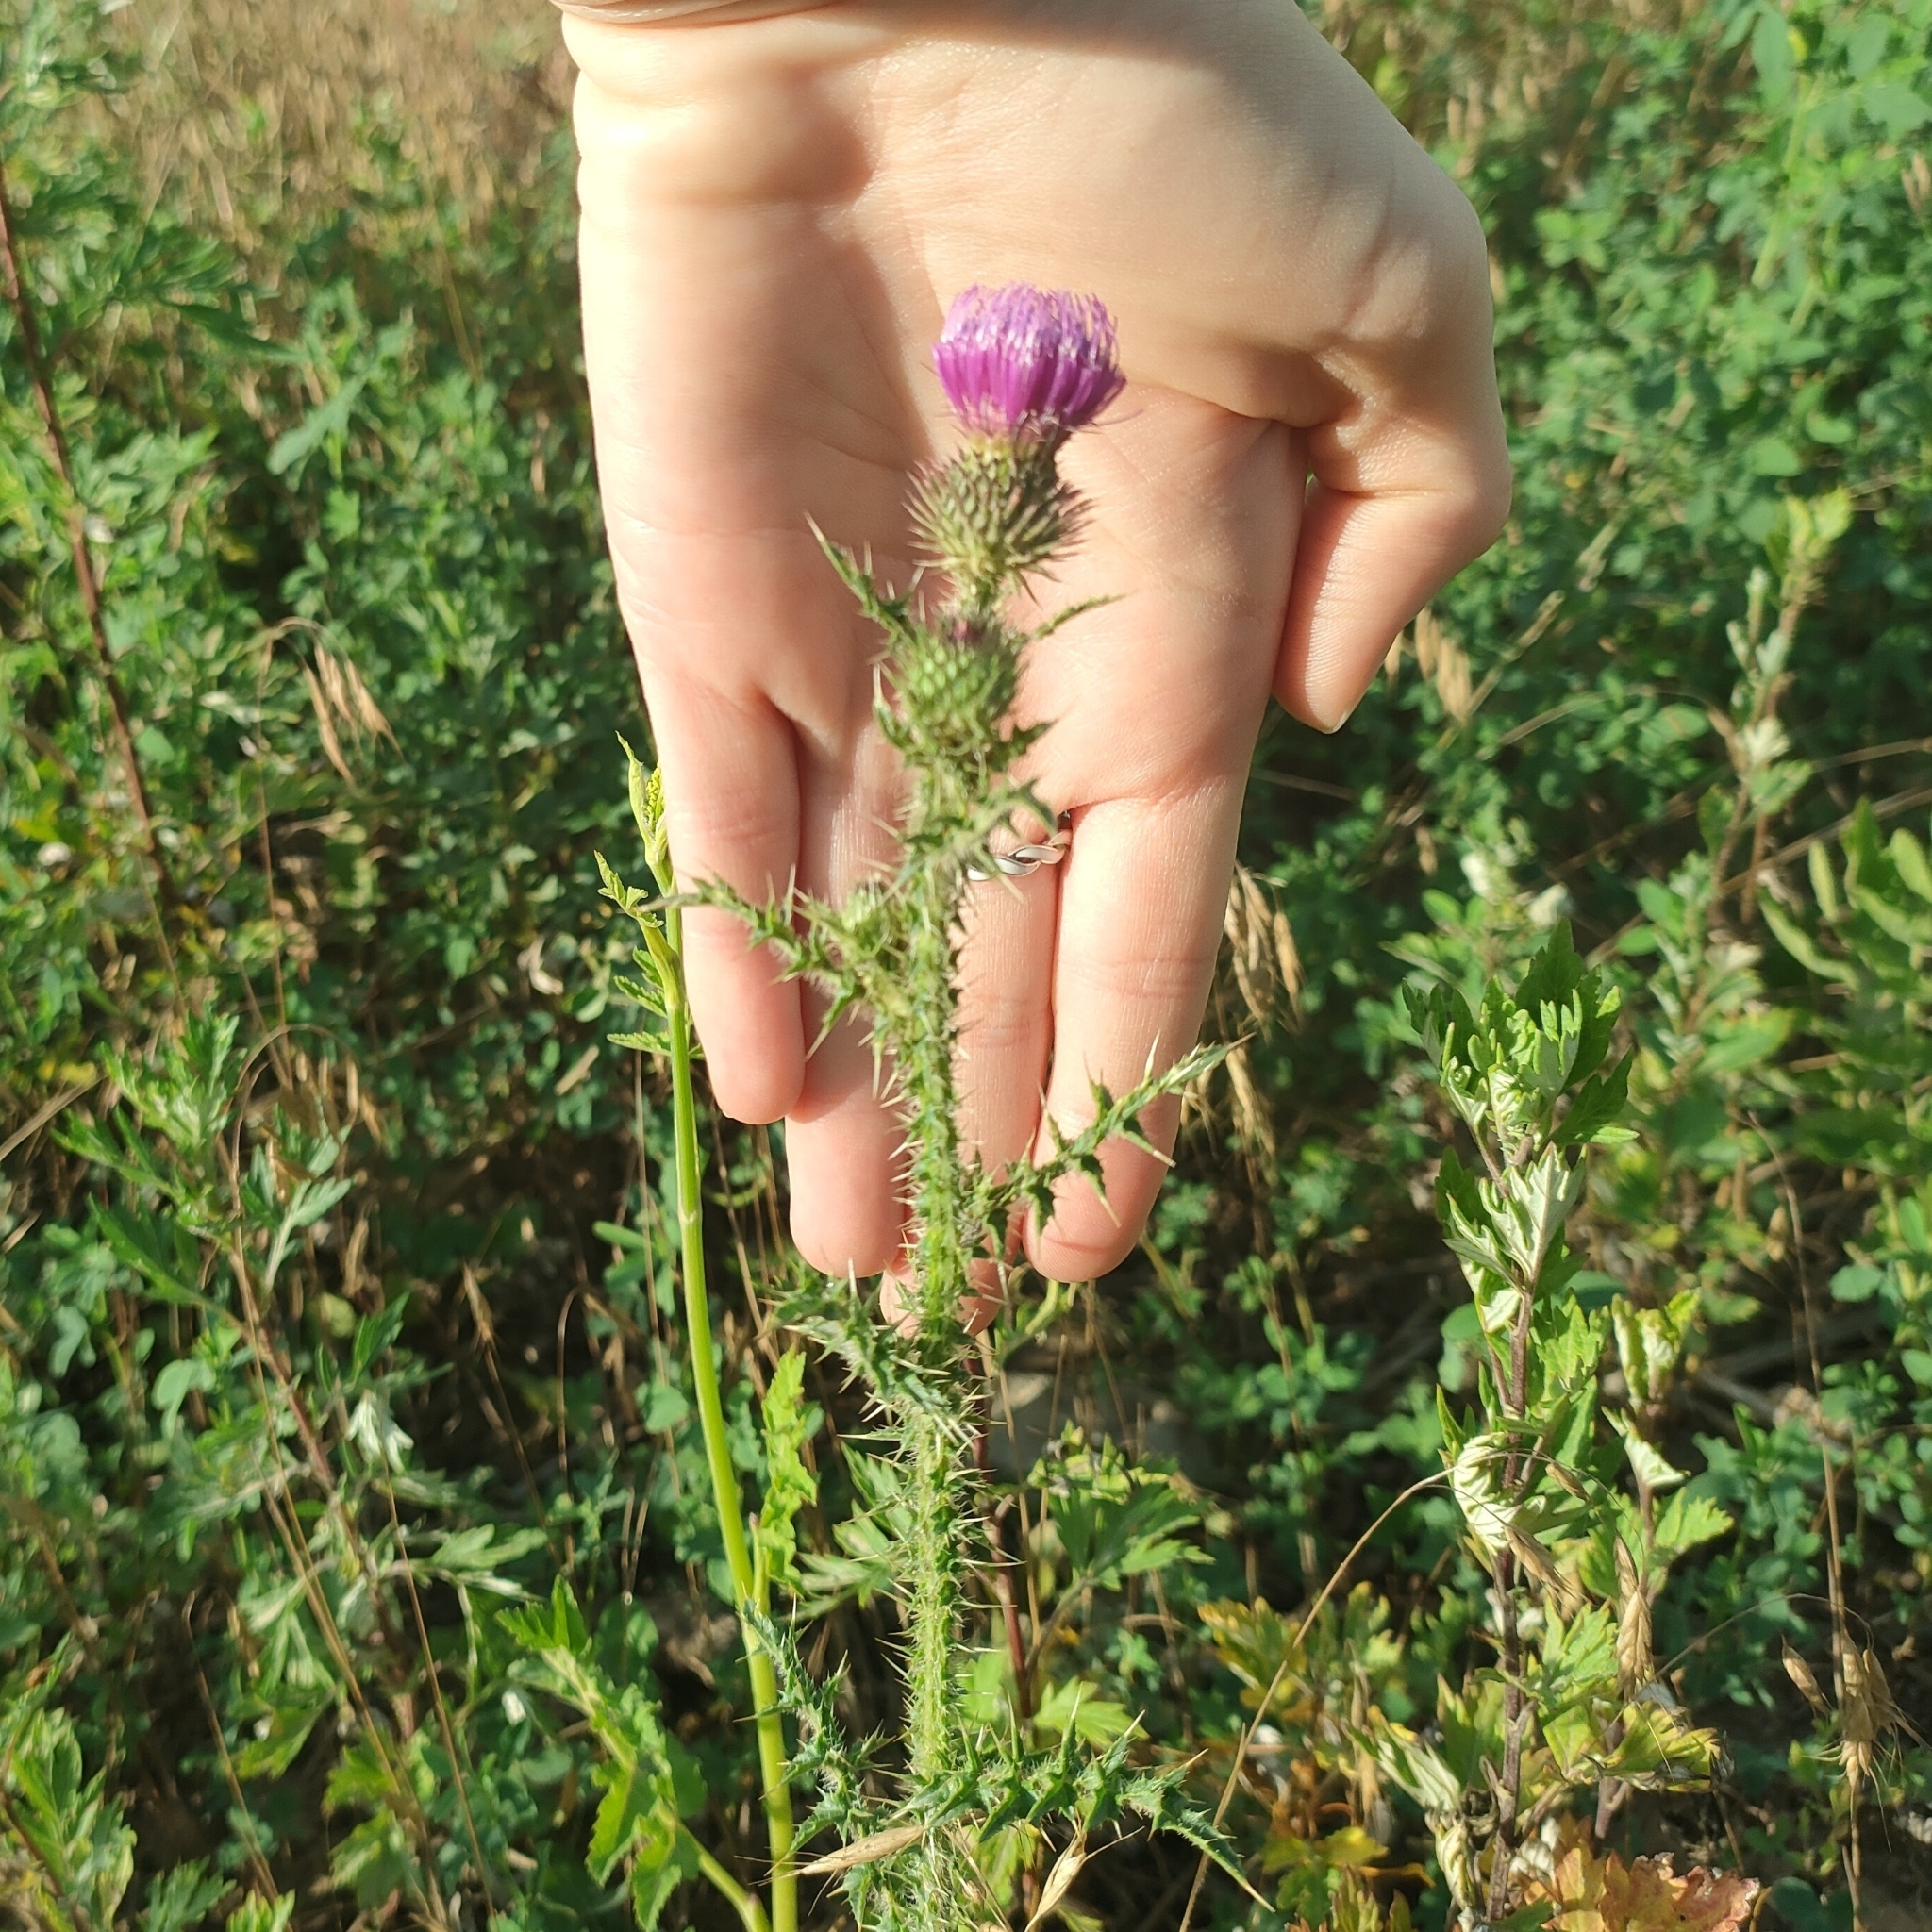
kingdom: Plantae
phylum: Tracheophyta
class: Magnoliopsida
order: Asterales
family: Asteraceae
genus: Carduus
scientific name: Carduus acanthoides
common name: Plumeless thistle
